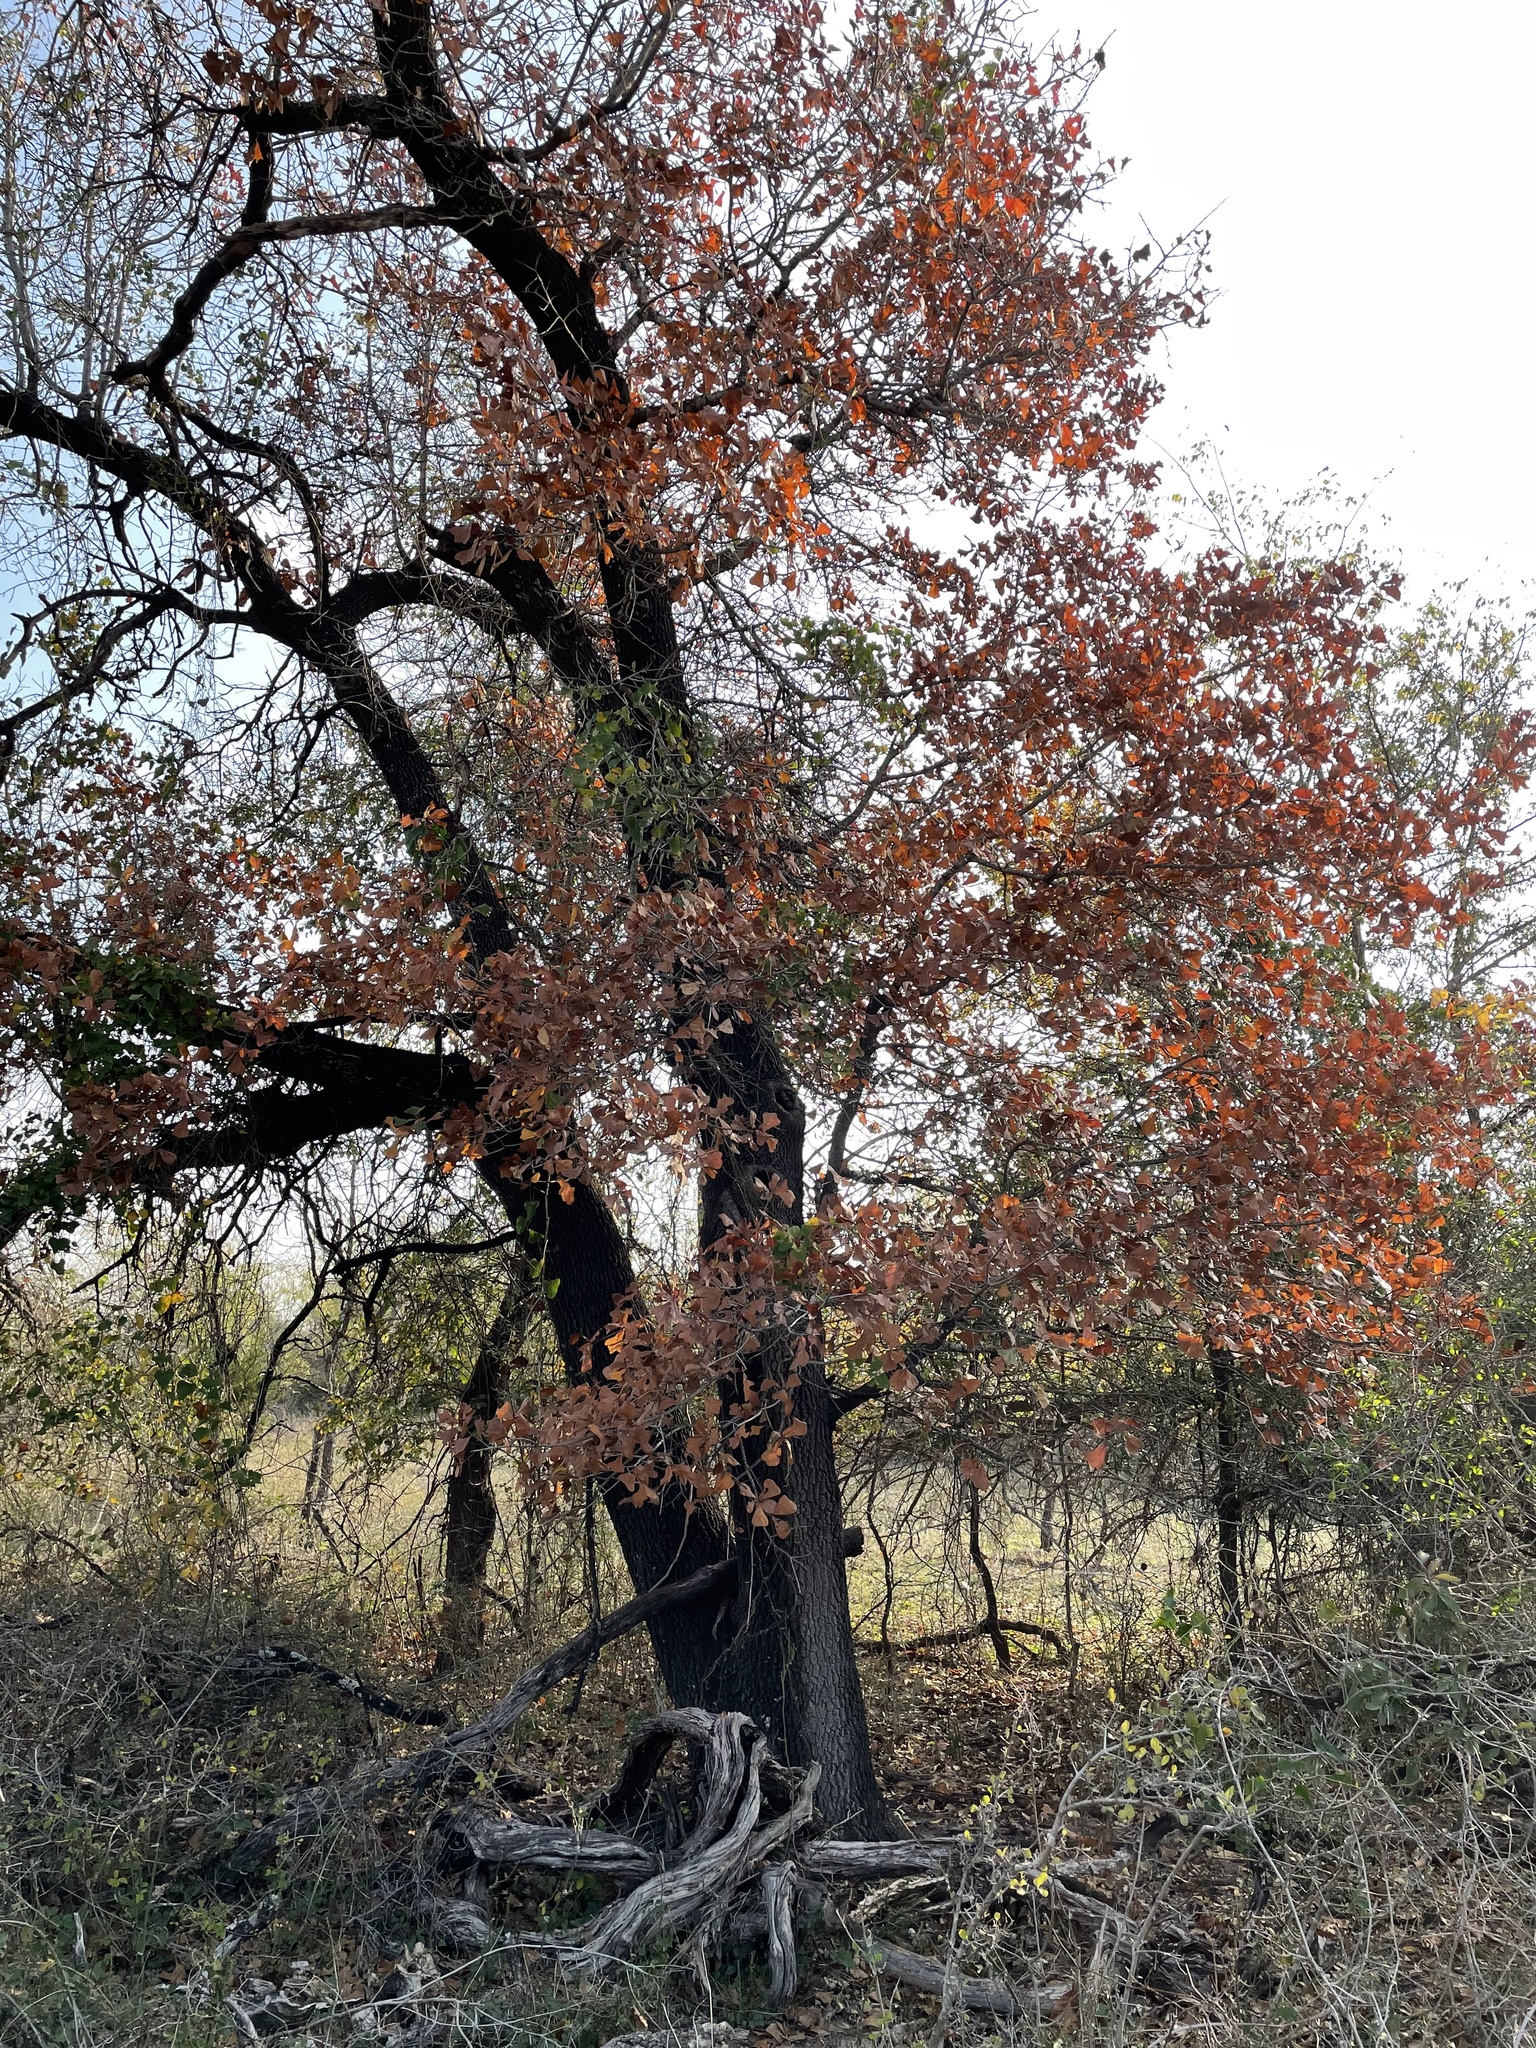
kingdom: Plantae
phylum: Tracheophyta
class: Magnoliopsida
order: Fagales
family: Fagaceae
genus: Quercus
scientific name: Quercus marilandica
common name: Blackjack oak
